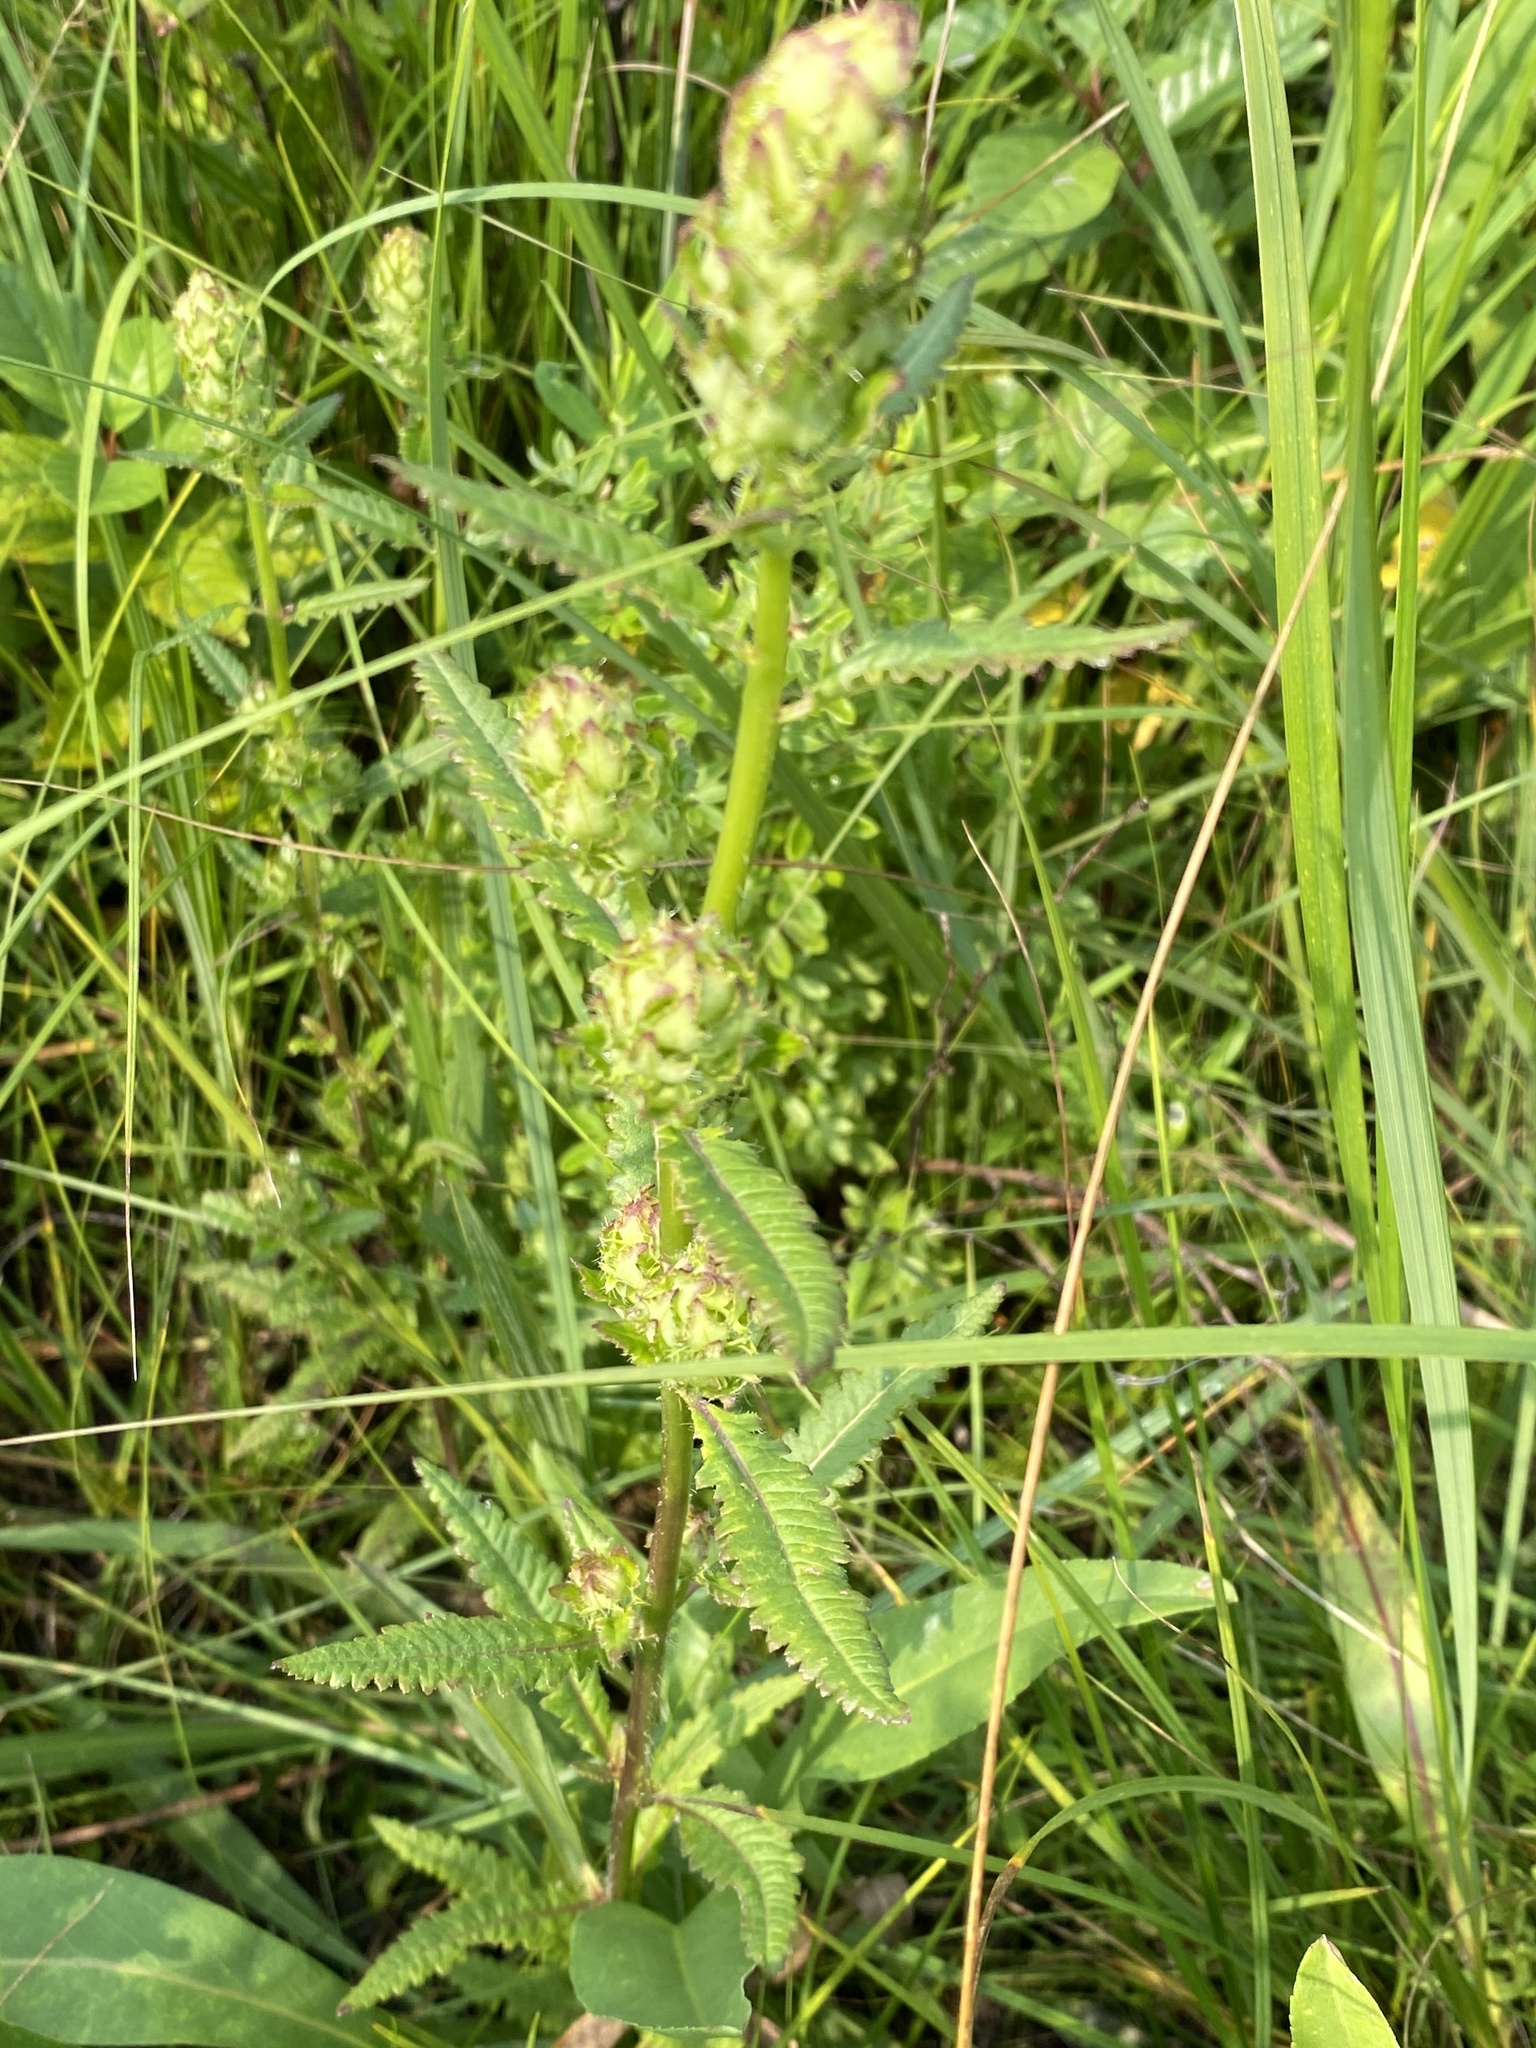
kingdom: Plantae
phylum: Tracheophyta
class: Magnoliopsida
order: Lamiales
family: Orobanchaceae
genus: Pedicularis
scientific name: Pedicularis lanceolata
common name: Swamp lousewort
